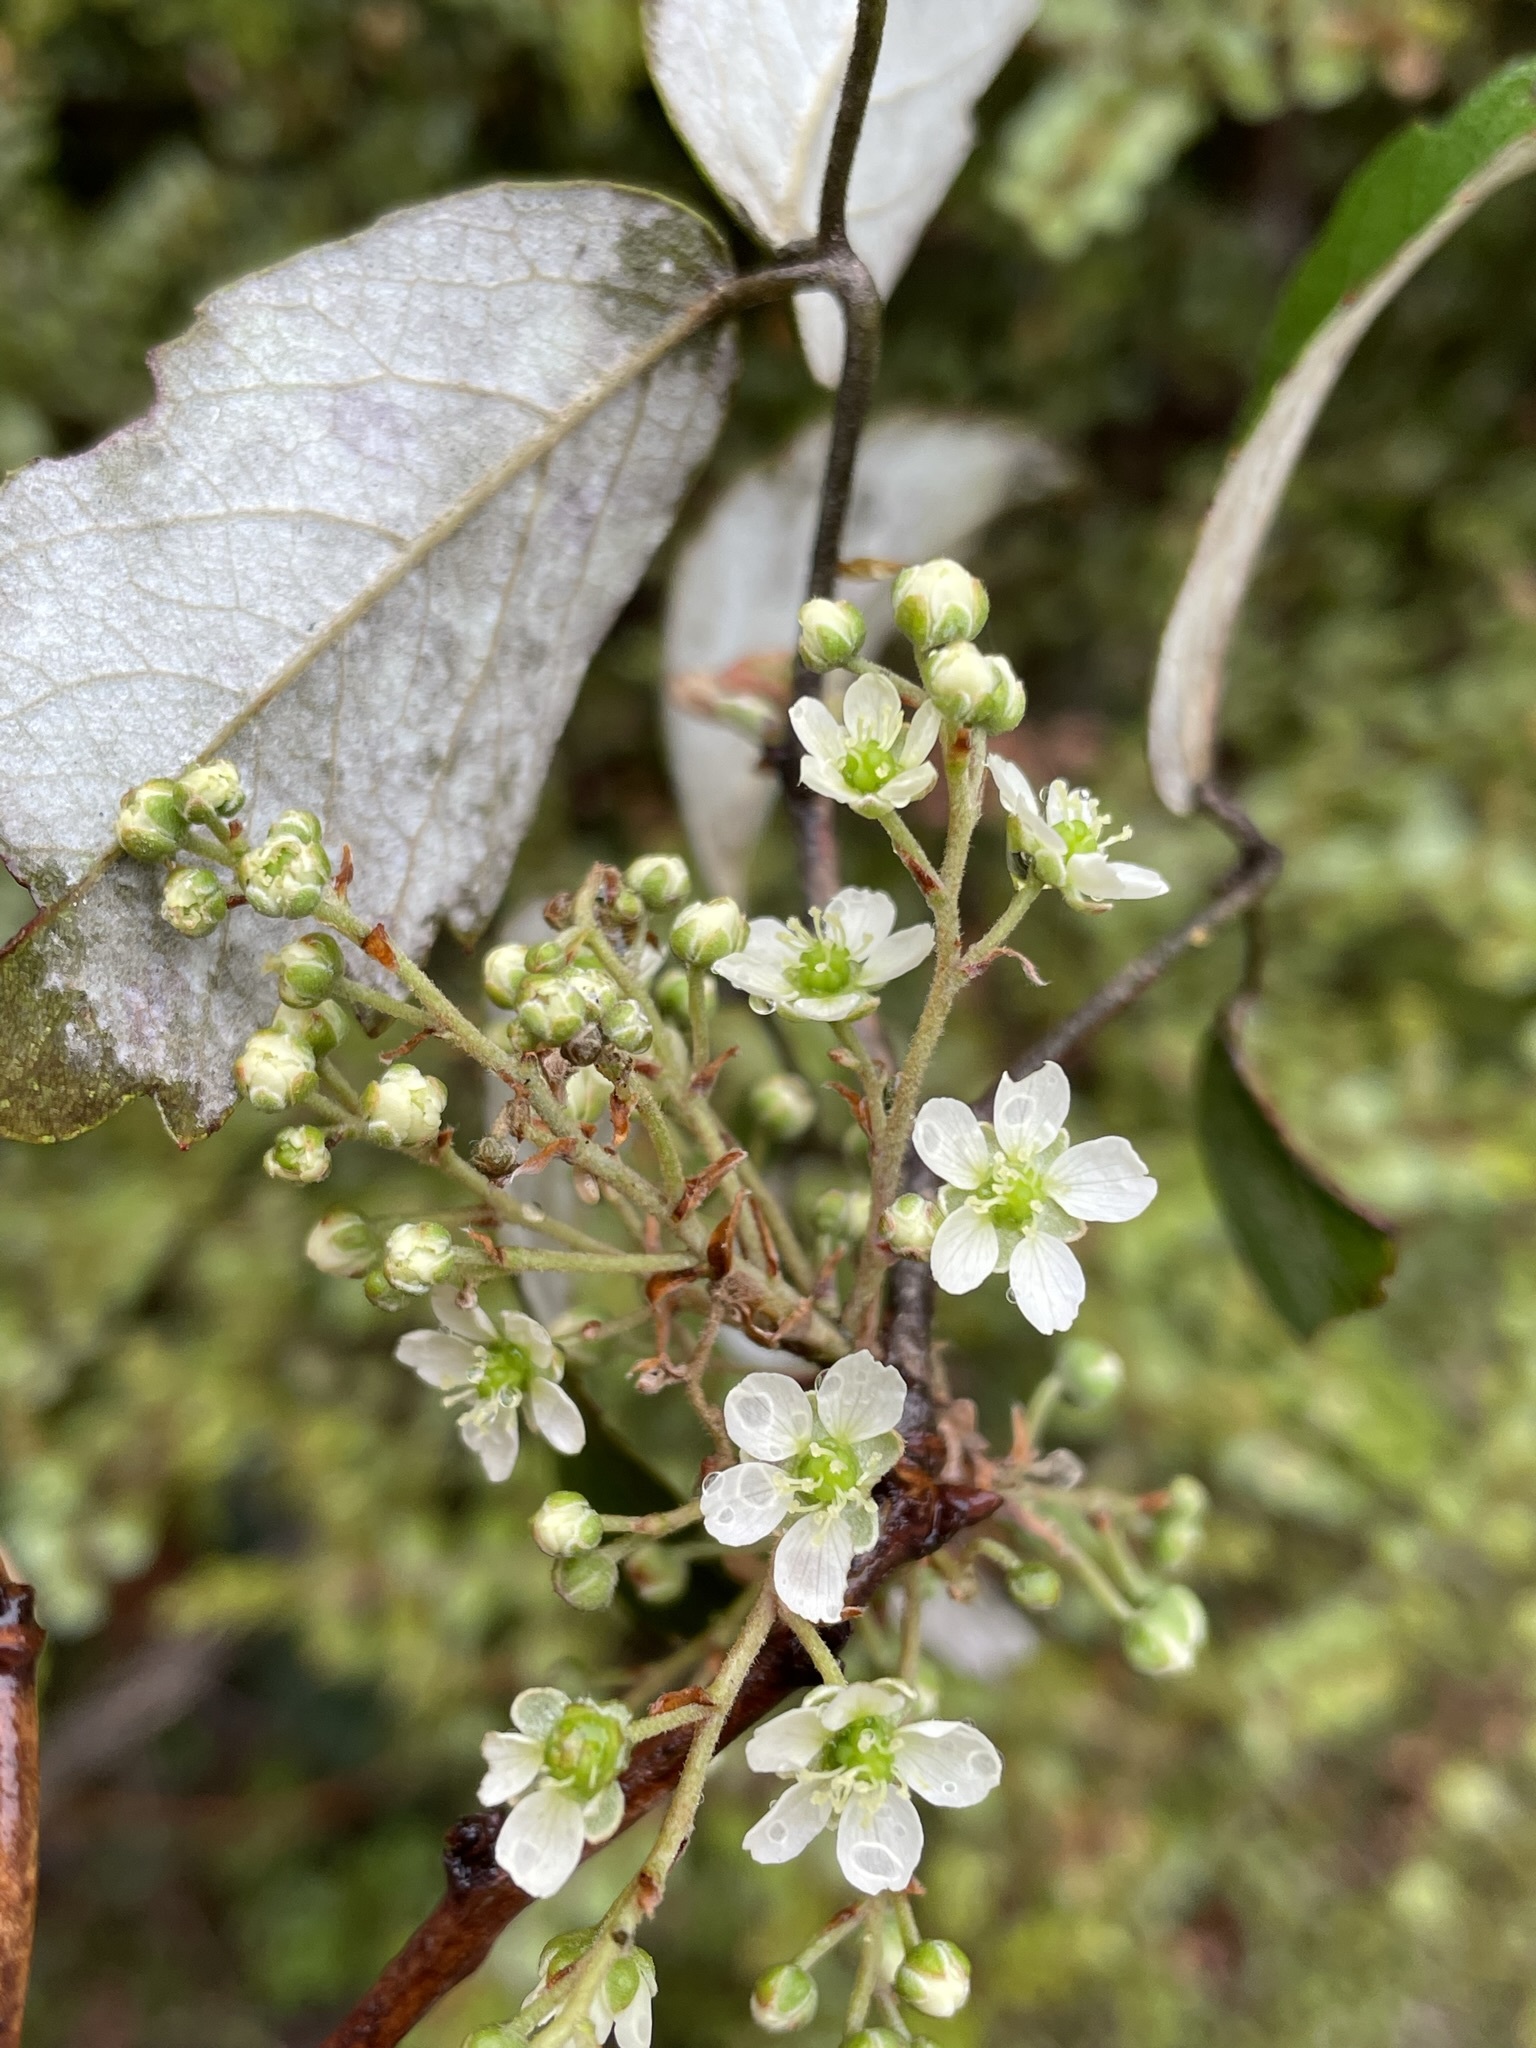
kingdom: Plantae
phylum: Tracheophyta
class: Magnoliopsida
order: Rosales
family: Rosaceae
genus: Rubus
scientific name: Rubus schmidelioides
